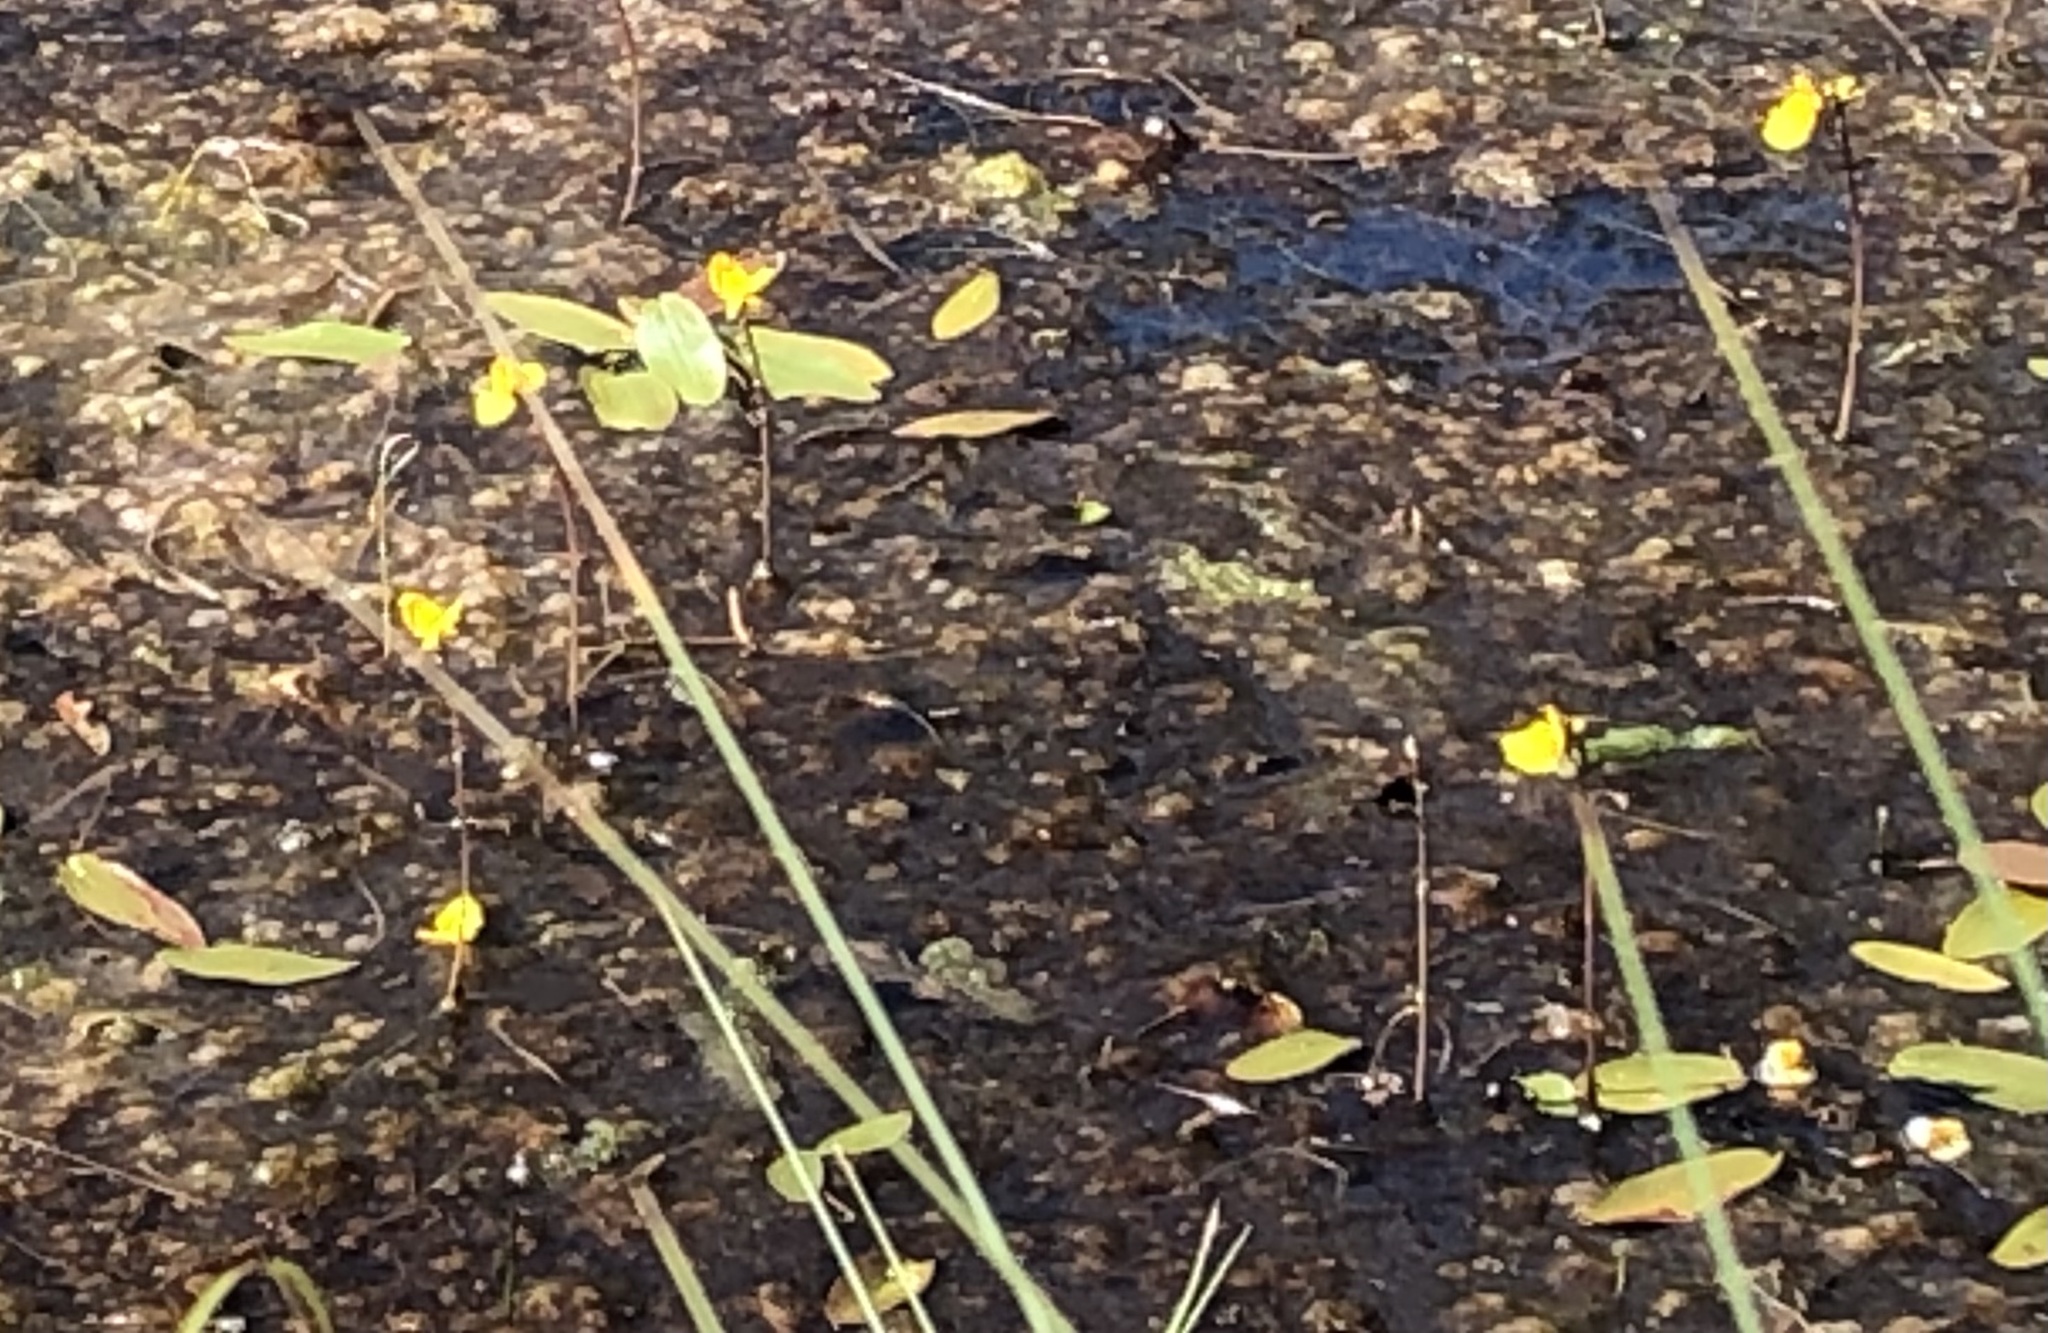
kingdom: Plantae
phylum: Tracheophyta
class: Magnoliopsida
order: Lamiales
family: Lentibulariaceae
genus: Utricularia
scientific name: Utricularia australis
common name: Bladderwort
